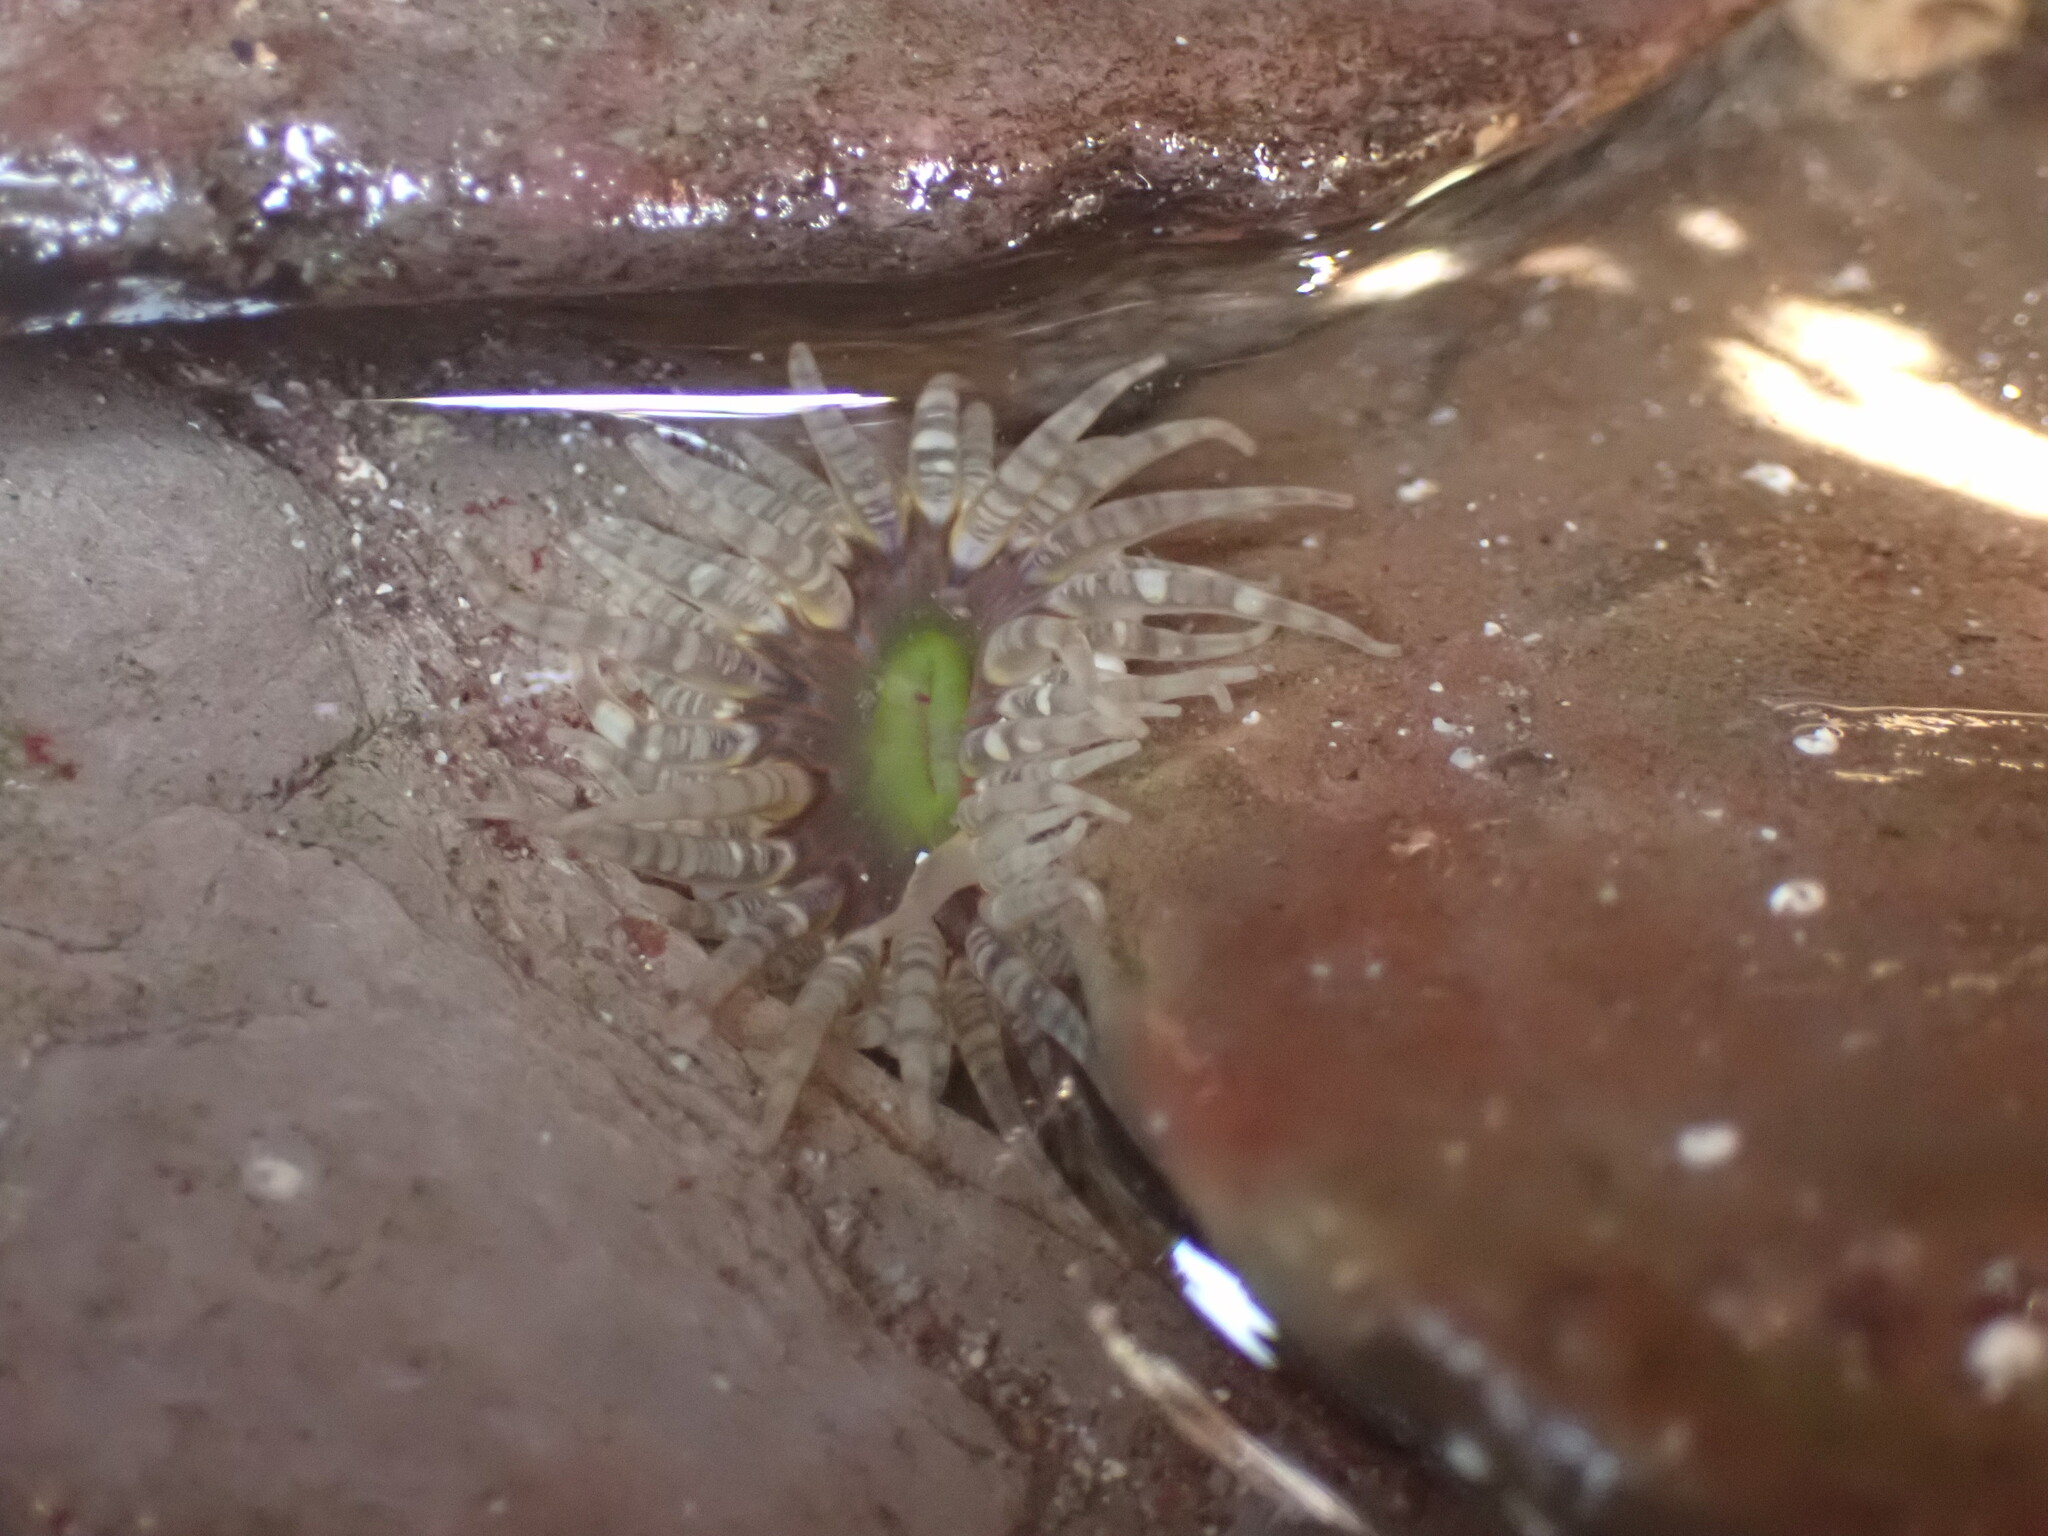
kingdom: Animalia
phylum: Cnidaria
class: Anthozoa
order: Actiniaria
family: Actiniidae
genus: Bunodactis
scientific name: Bunodactis verrucosa
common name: Gem anemone
